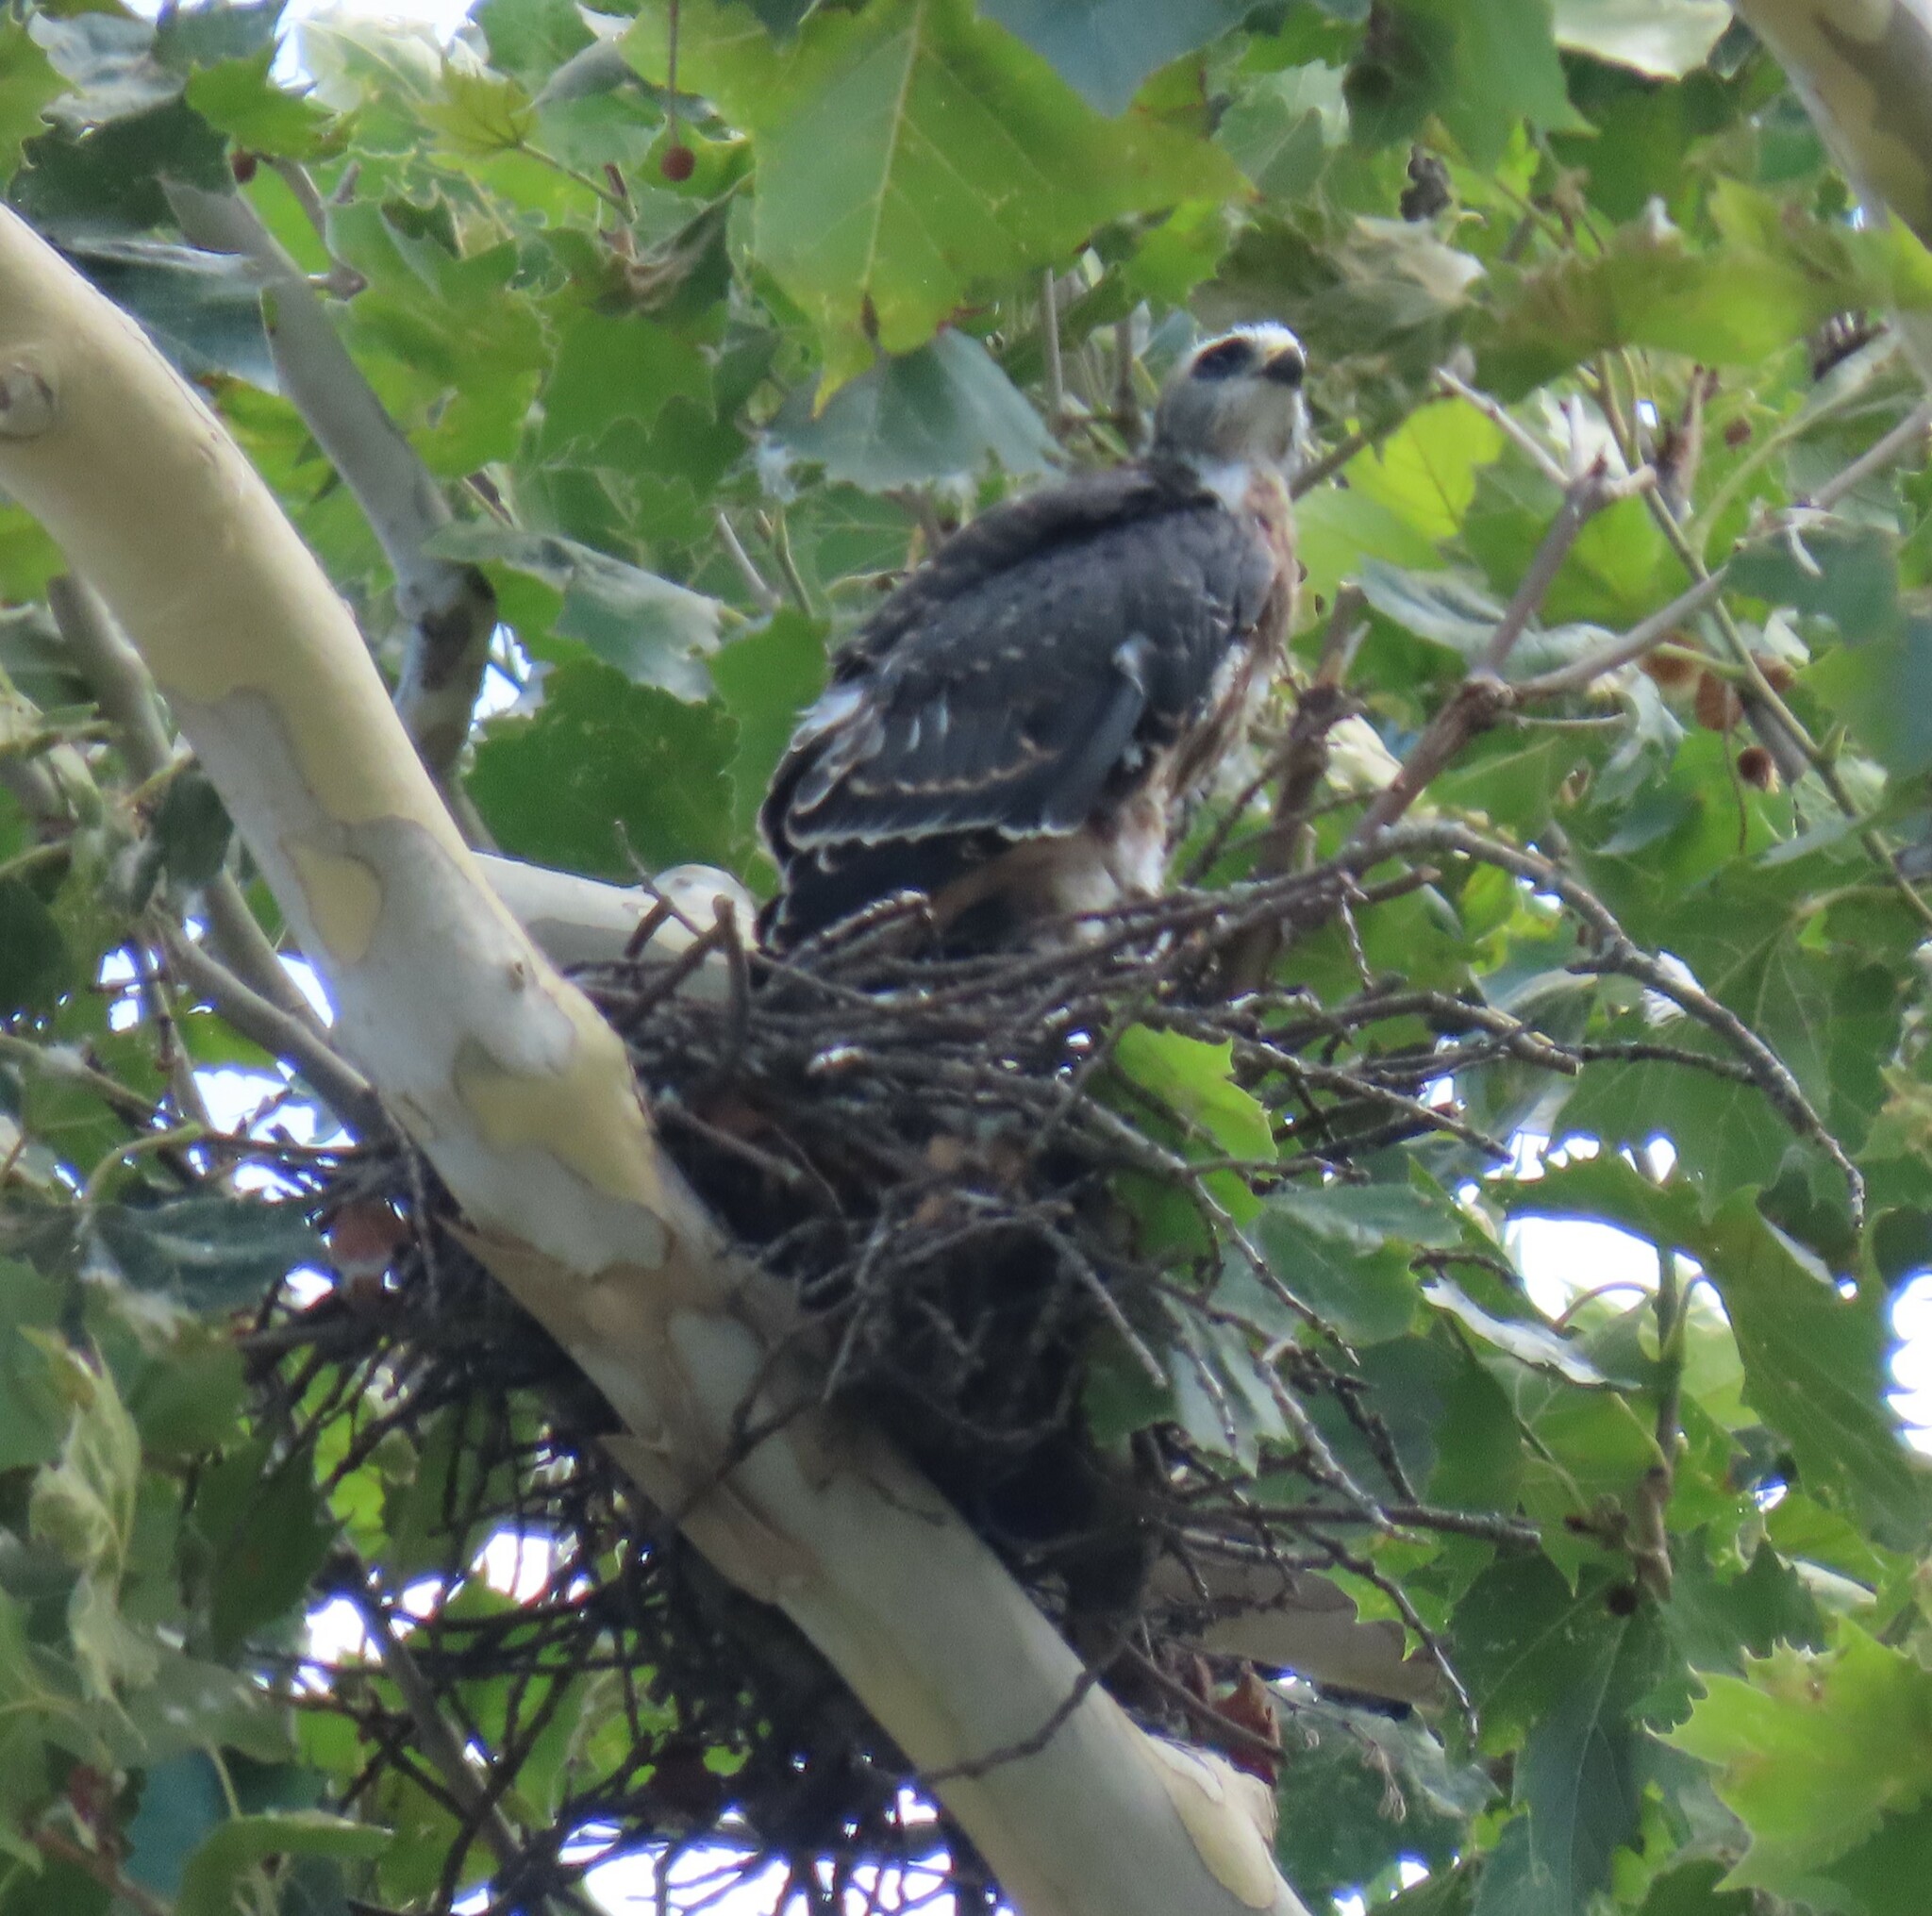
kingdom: Animalia
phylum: Chordata
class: Aves
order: Accipitriformes
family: Accipitridae
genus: Ictinia
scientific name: Ictinia mississippiensis
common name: Mississippi kite
